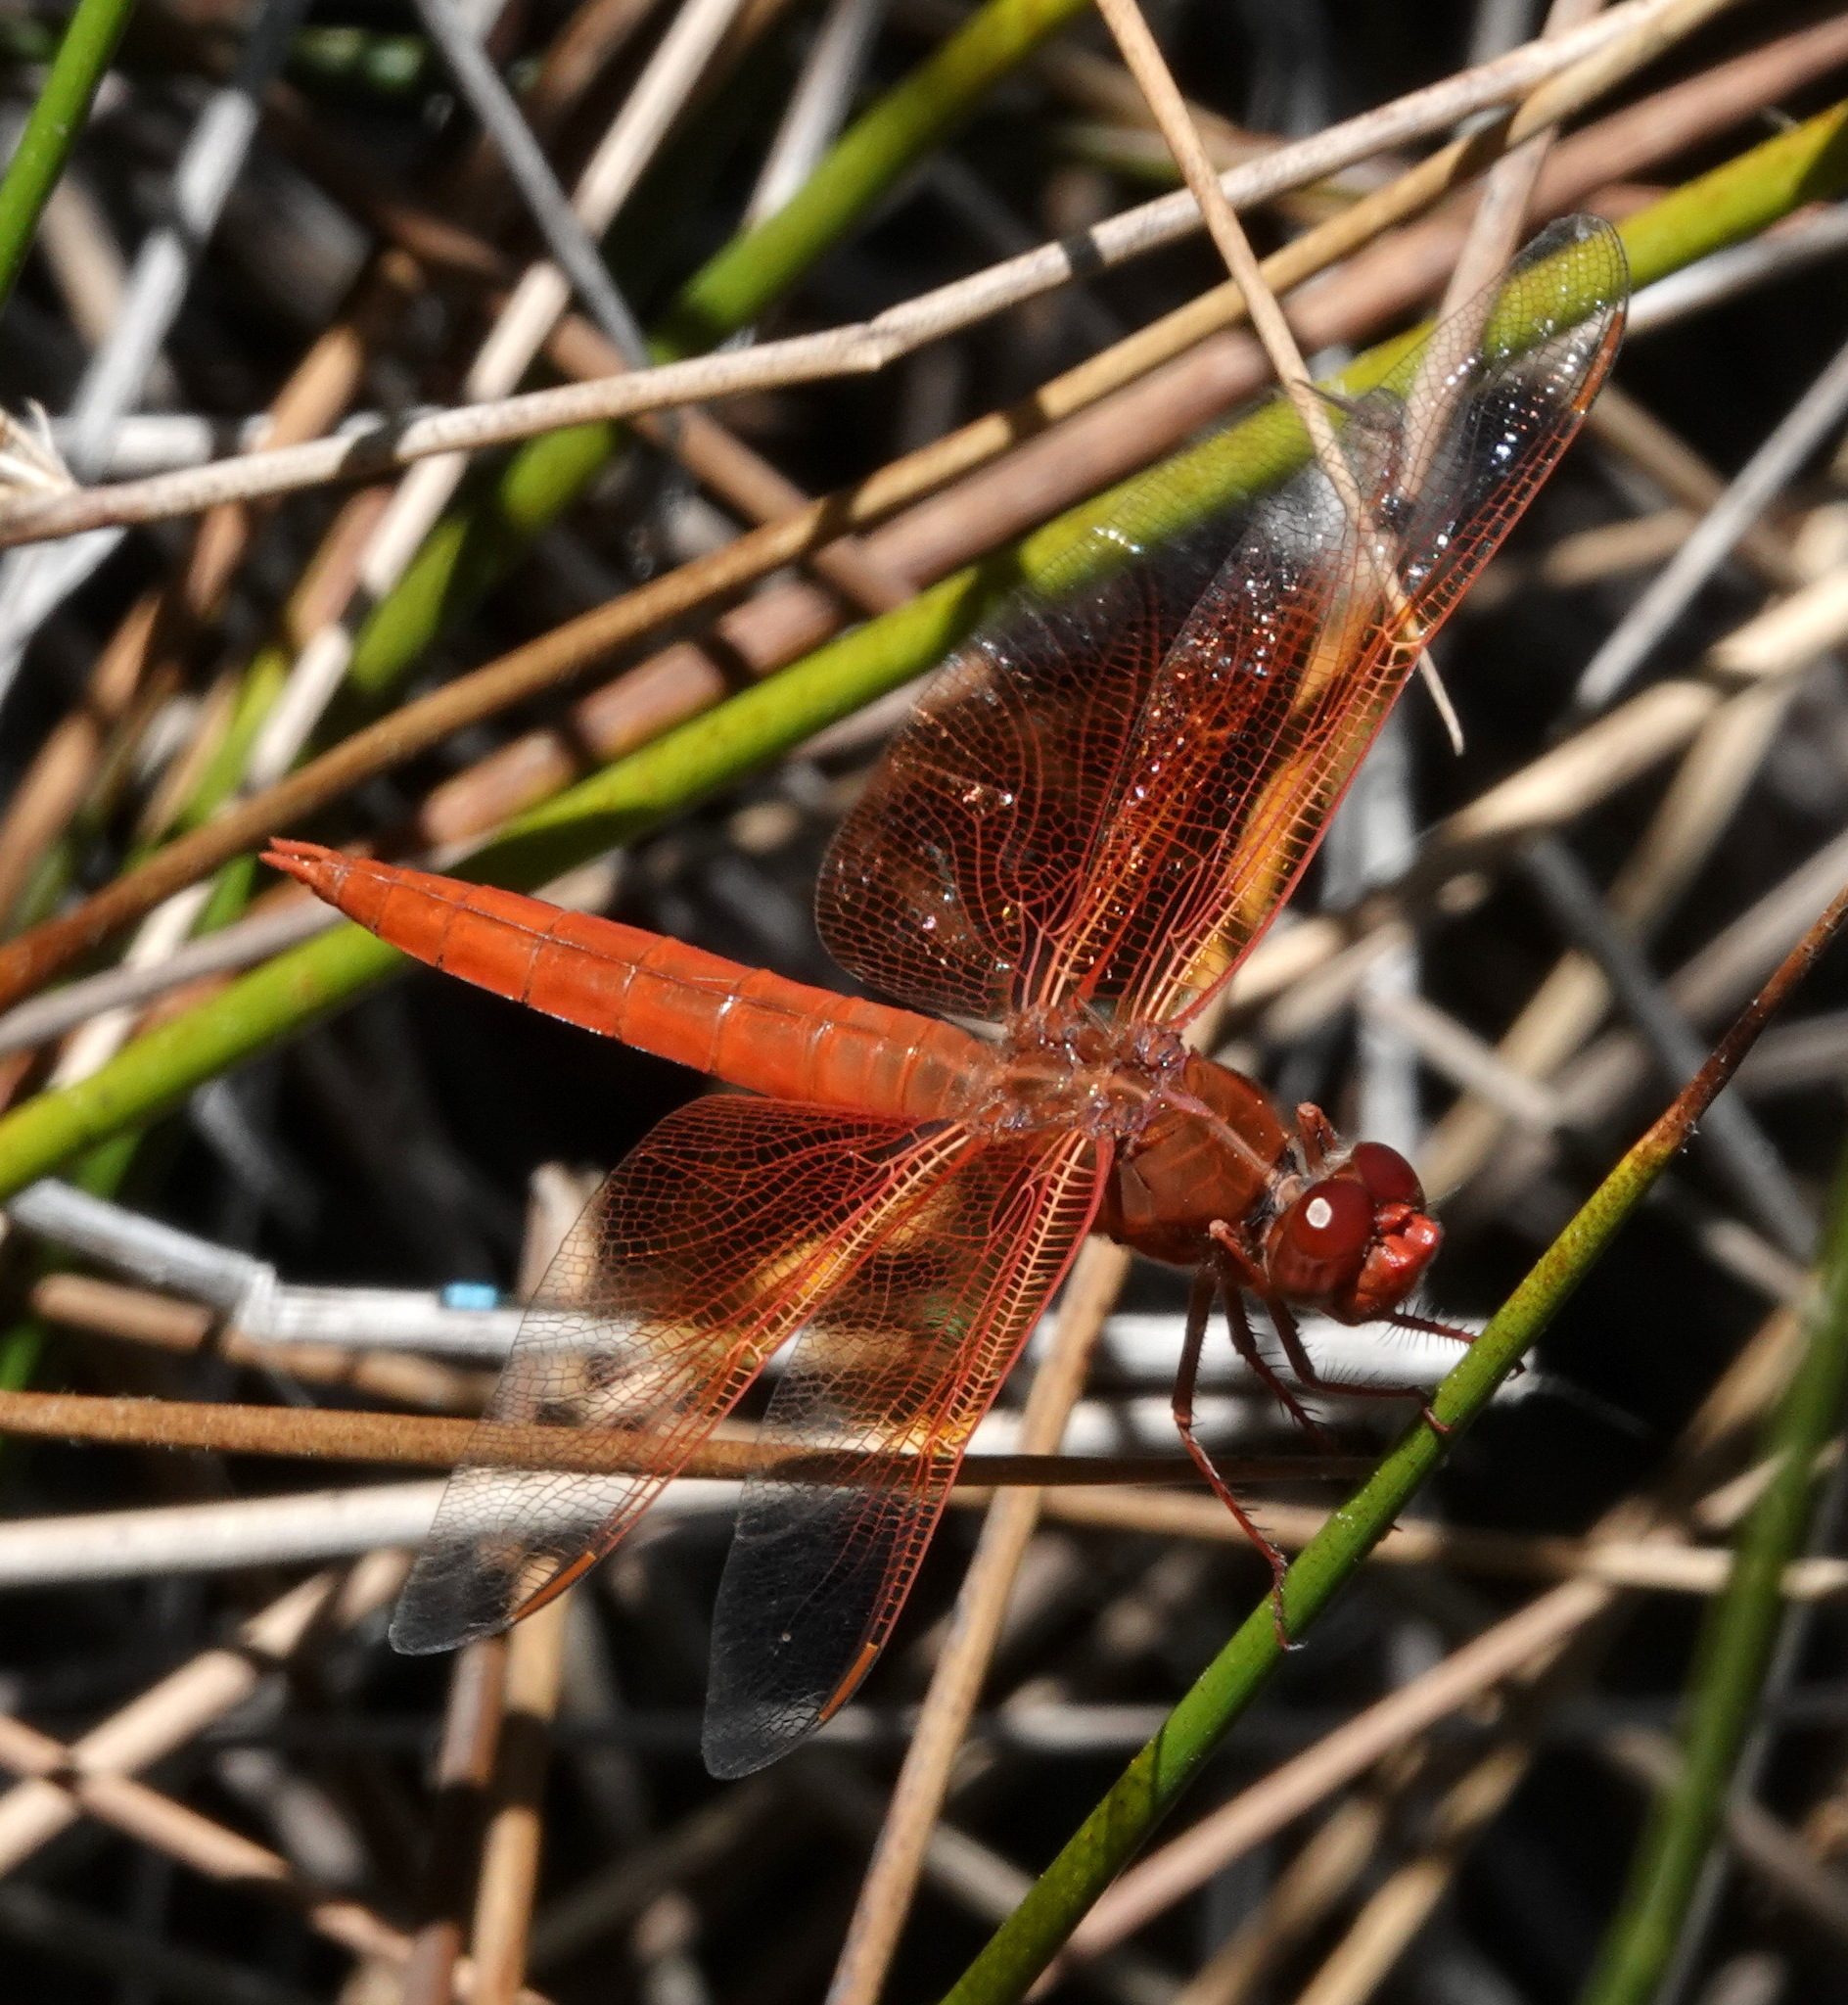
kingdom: Animalia
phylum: Arthropoda
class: Insecta
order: Odonata
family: Libellulidae
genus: Libellula
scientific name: Libellula saturata
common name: Flame skimmer
